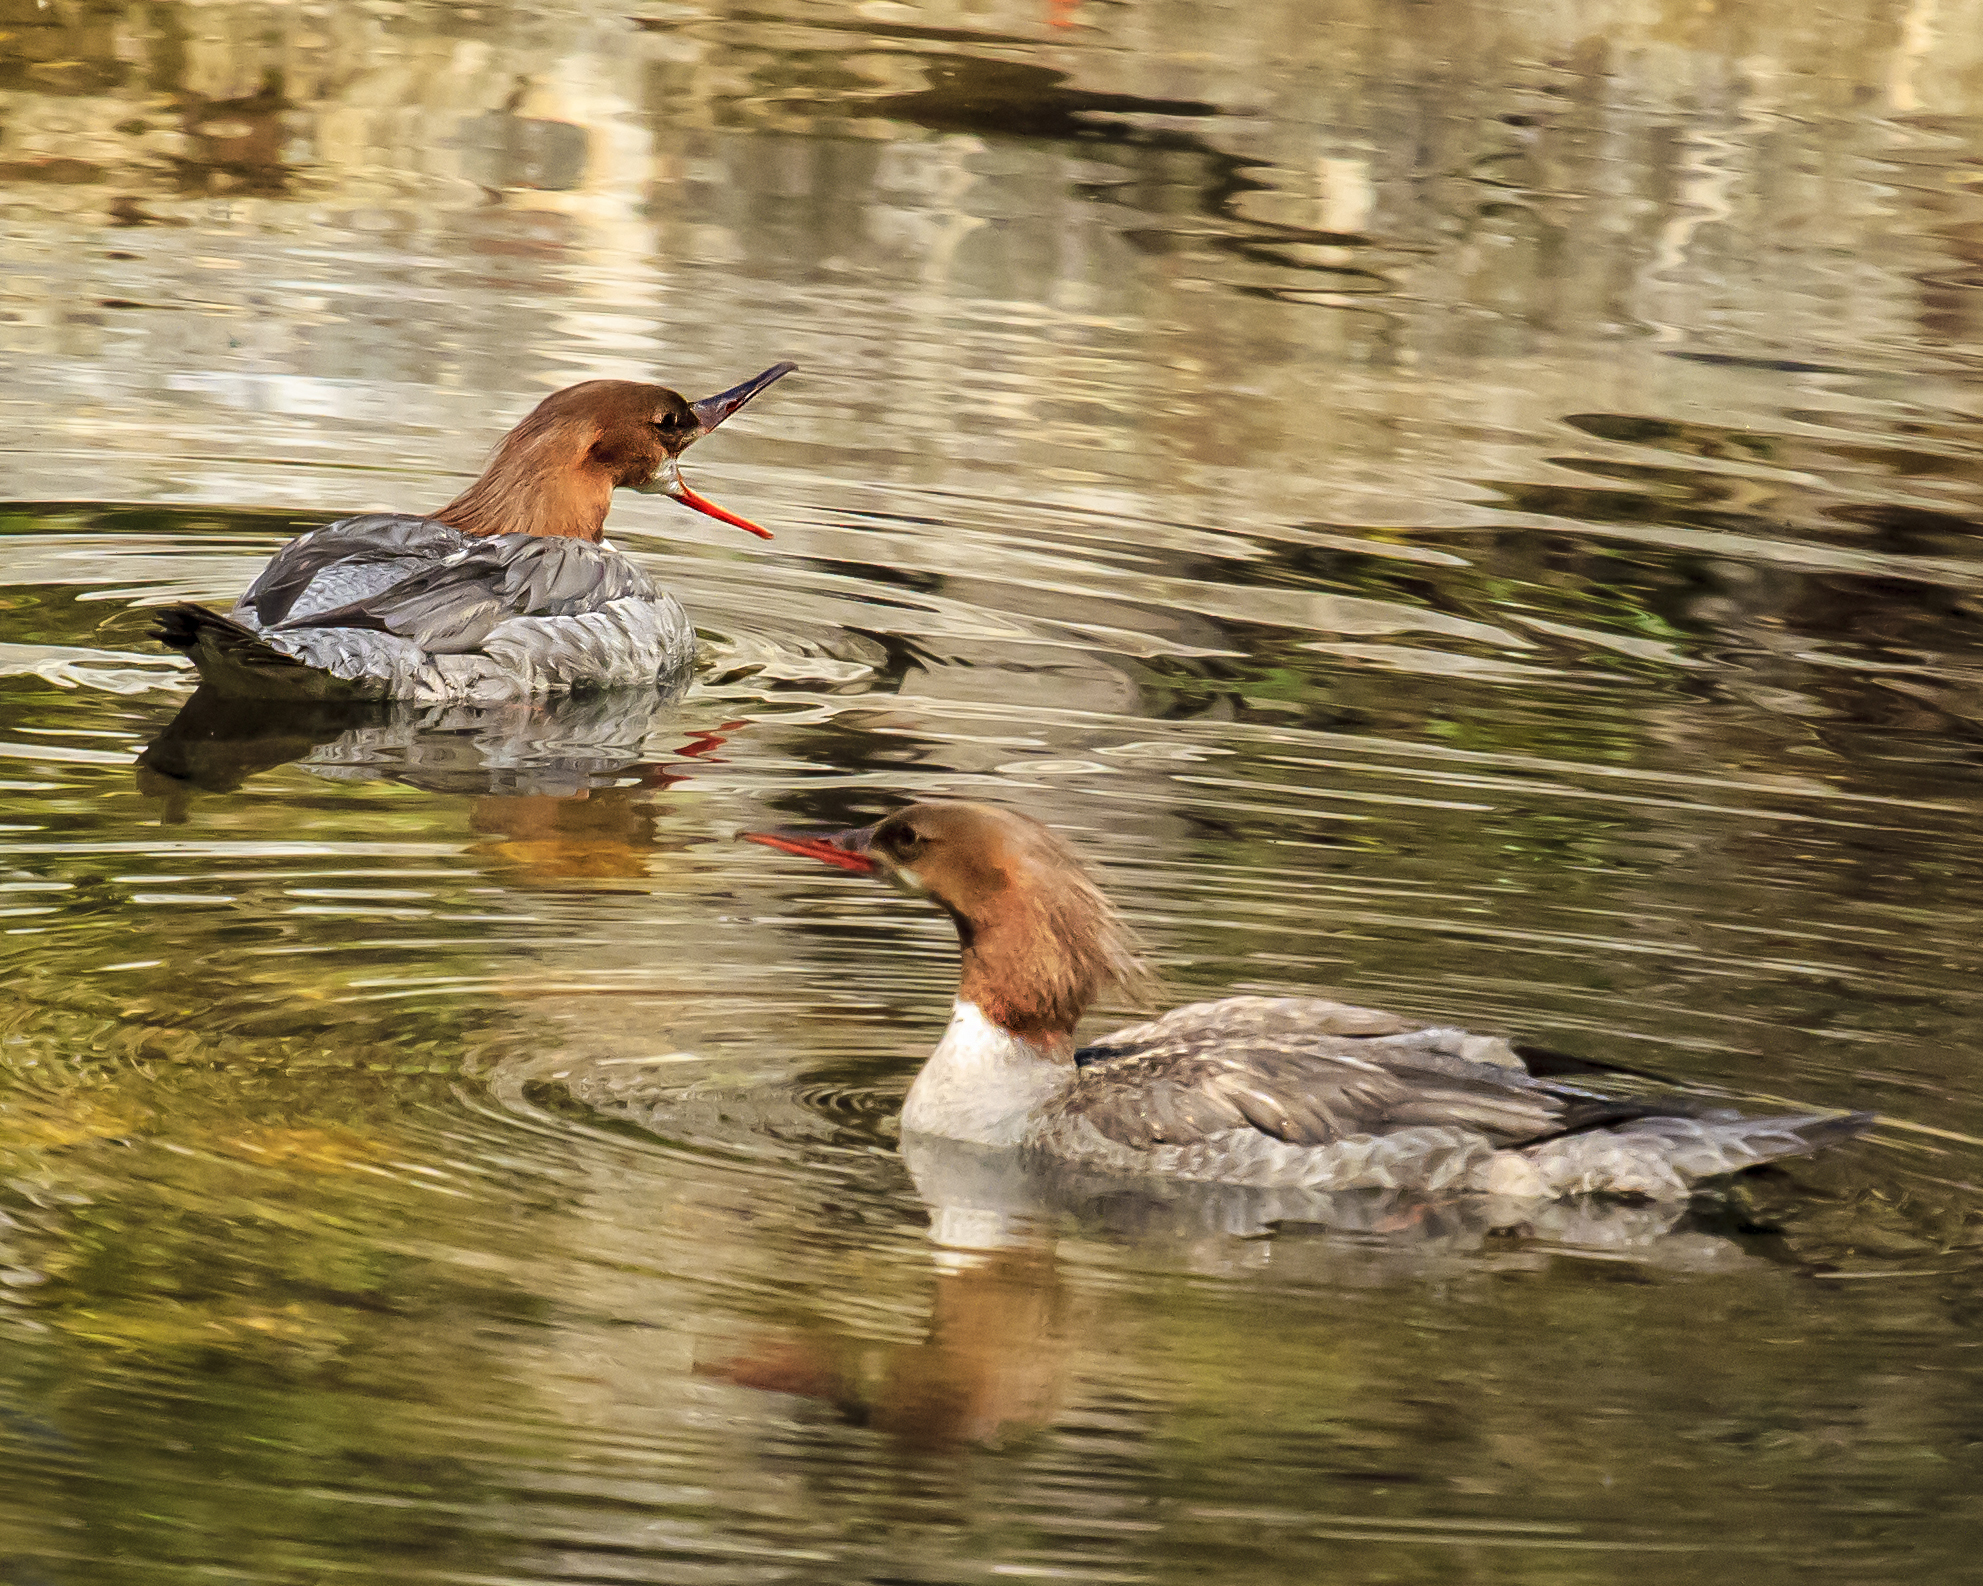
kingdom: Animalia
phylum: Chordata
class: Aves
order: Anseriformes
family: Anatidae
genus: Mergus
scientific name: Mergus merganser
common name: Common merganser
